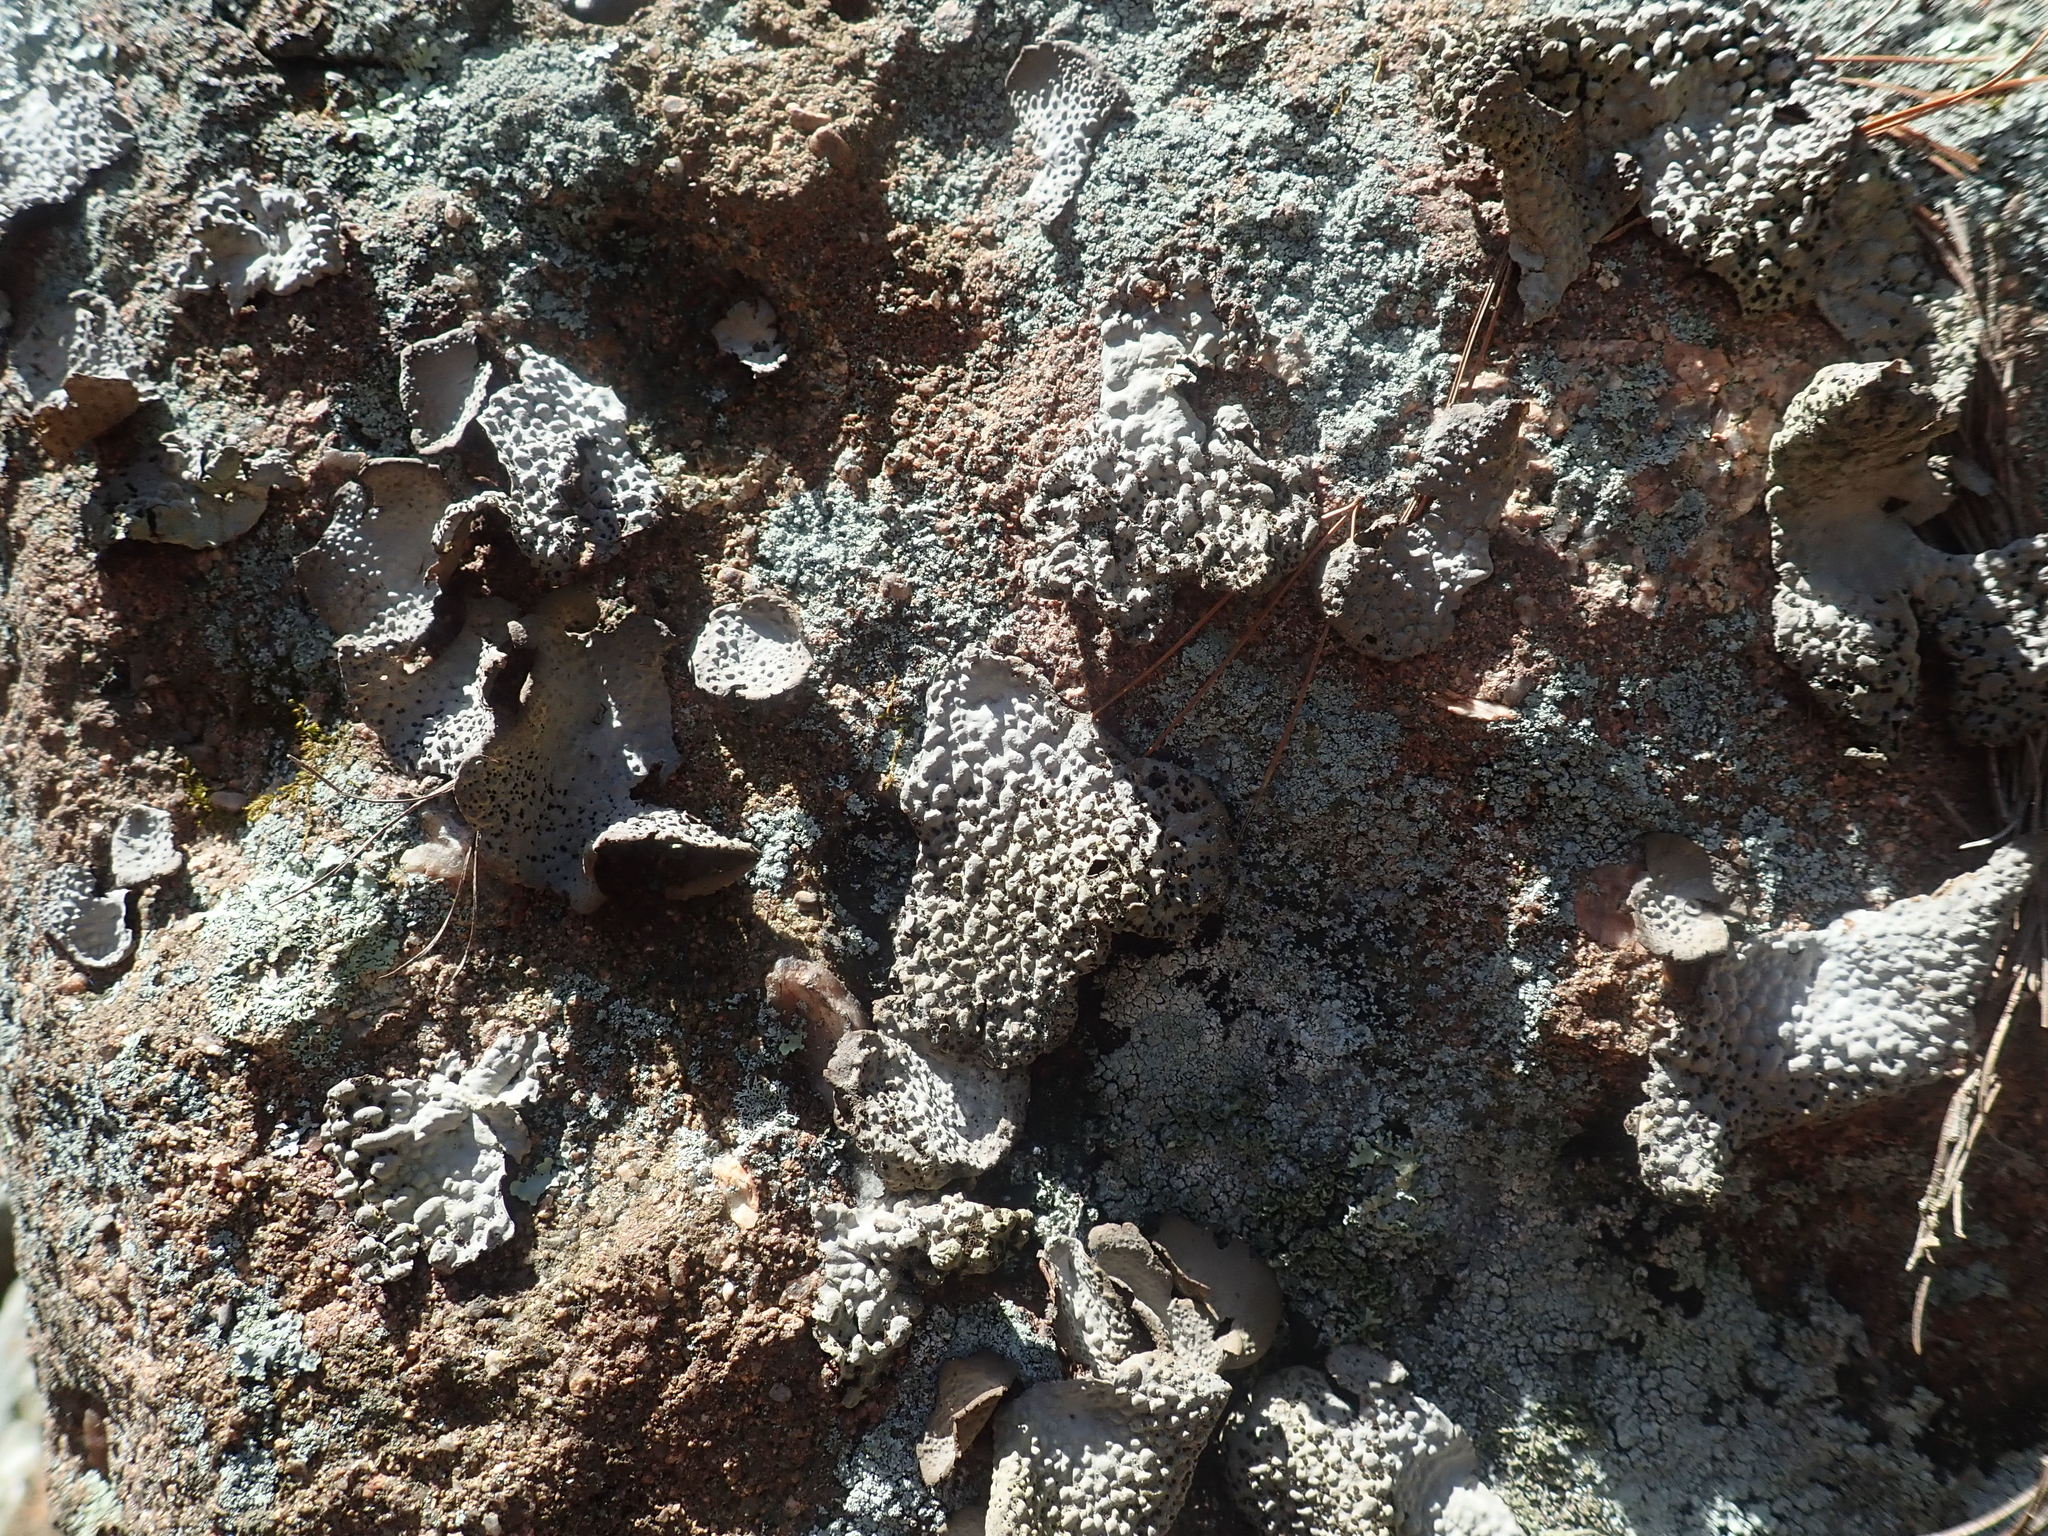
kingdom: Fungi
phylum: Ascomycota
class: Lecanoromycetes
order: Umbilicariales
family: Umbilicariaceae
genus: Lasallia
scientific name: Lasallia papulosa
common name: Common toadskin lichen
